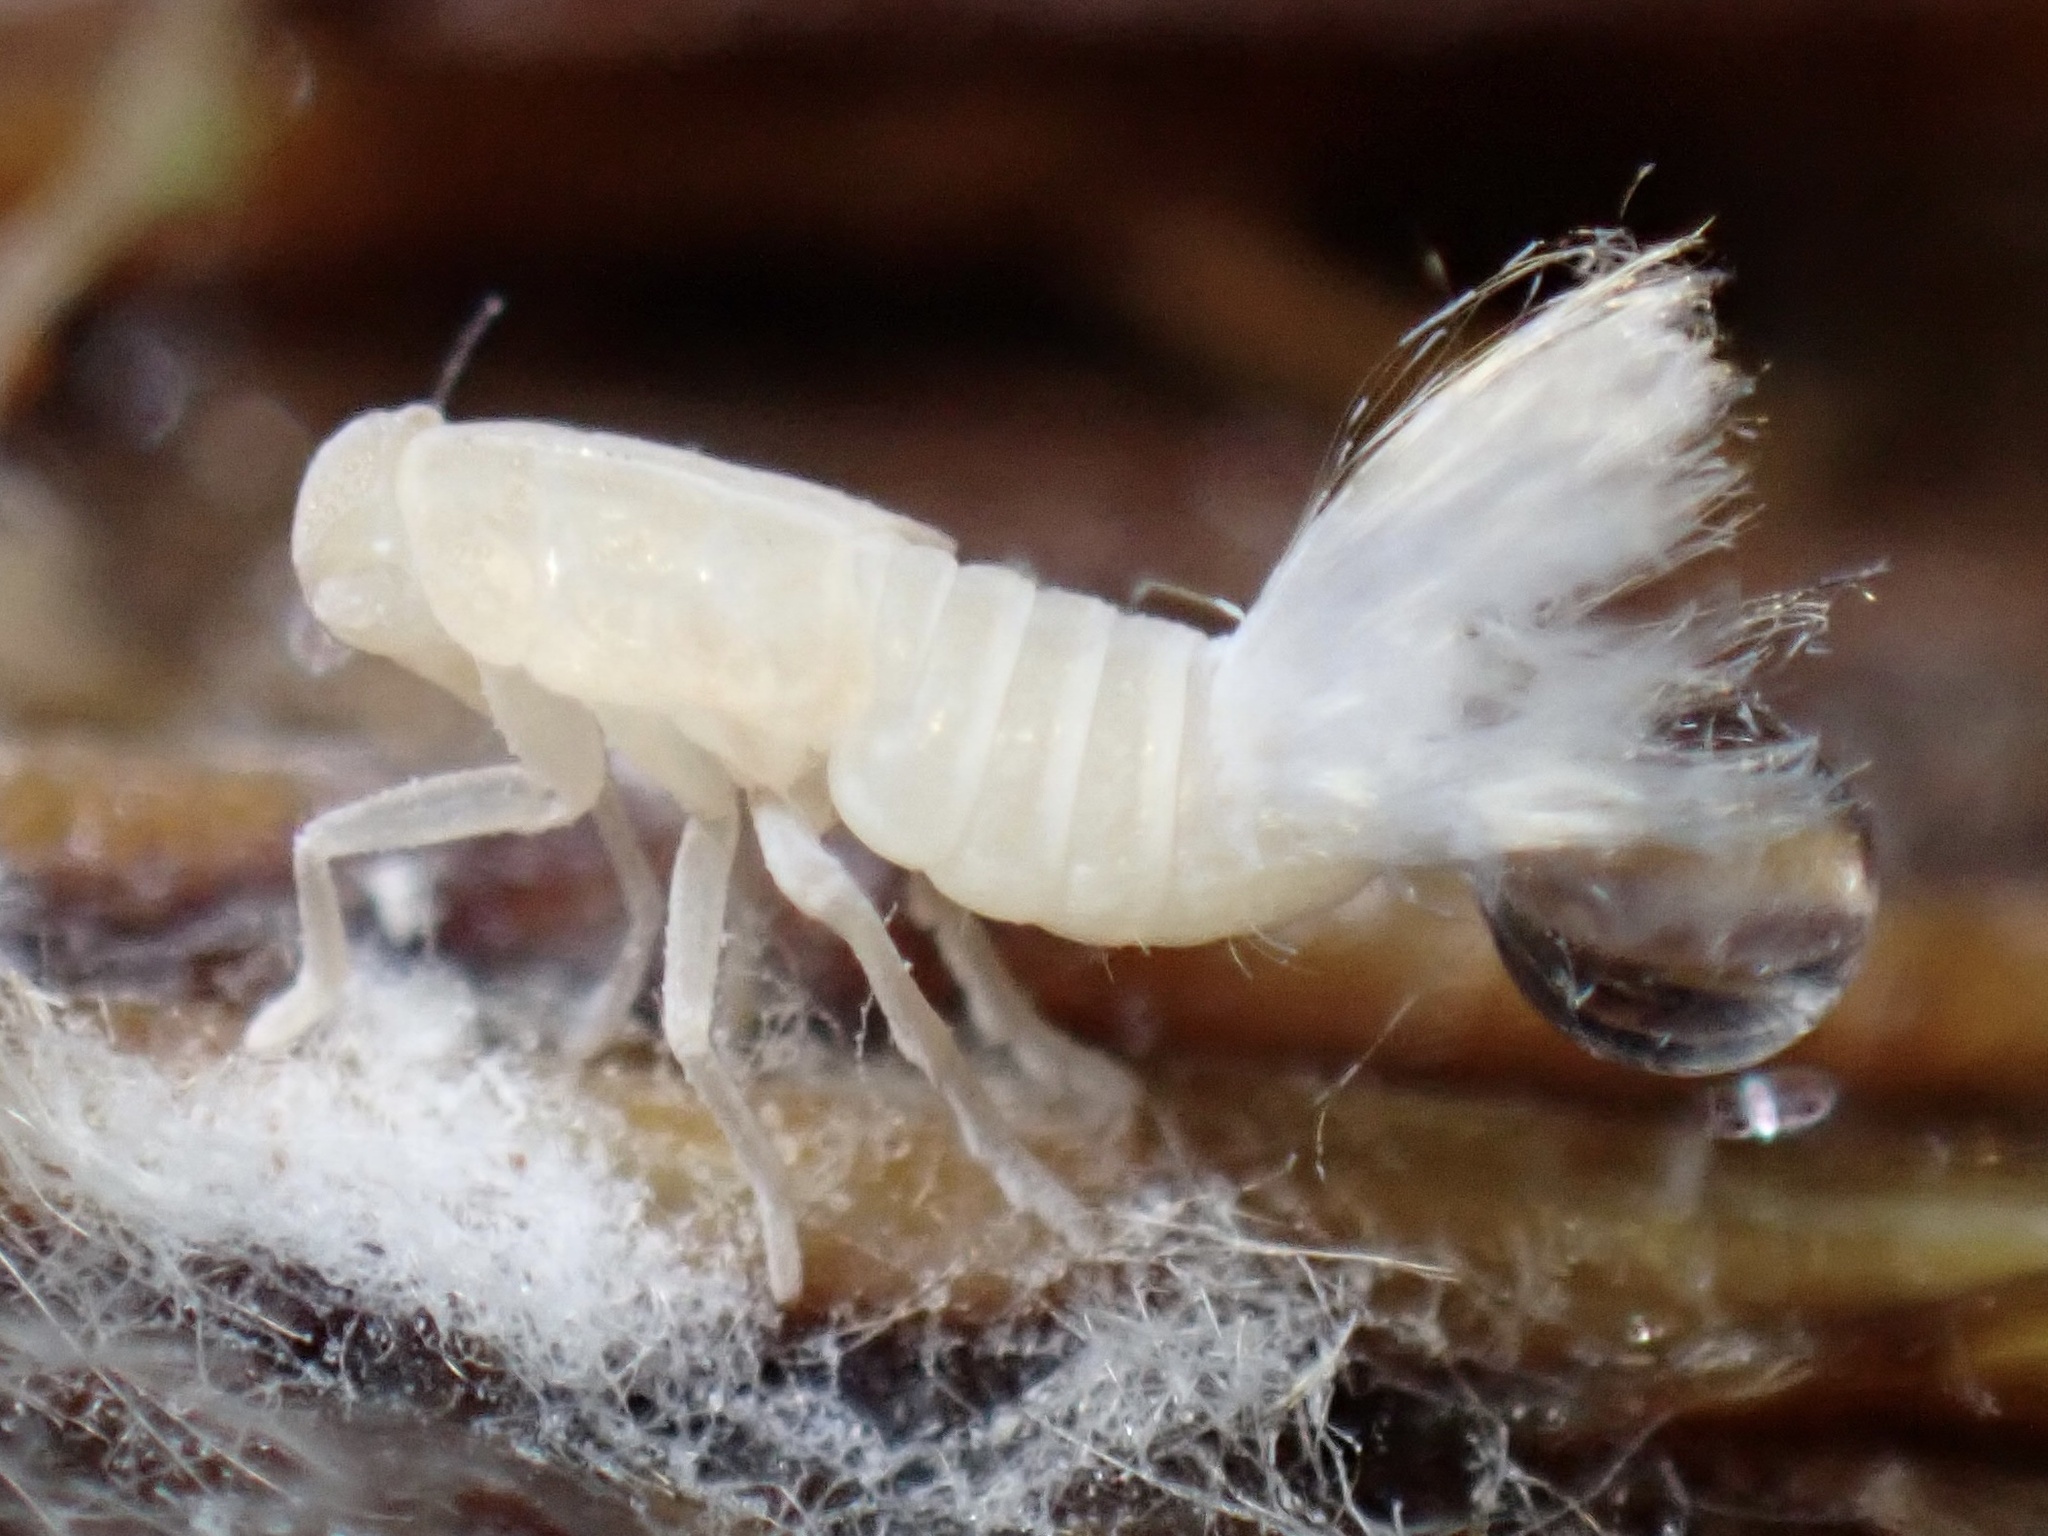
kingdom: Animalia
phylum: Arthropoda
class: Insecta
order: Hemiptera
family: Cixiidae
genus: Oliarus
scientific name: Oliarus polyphemus
